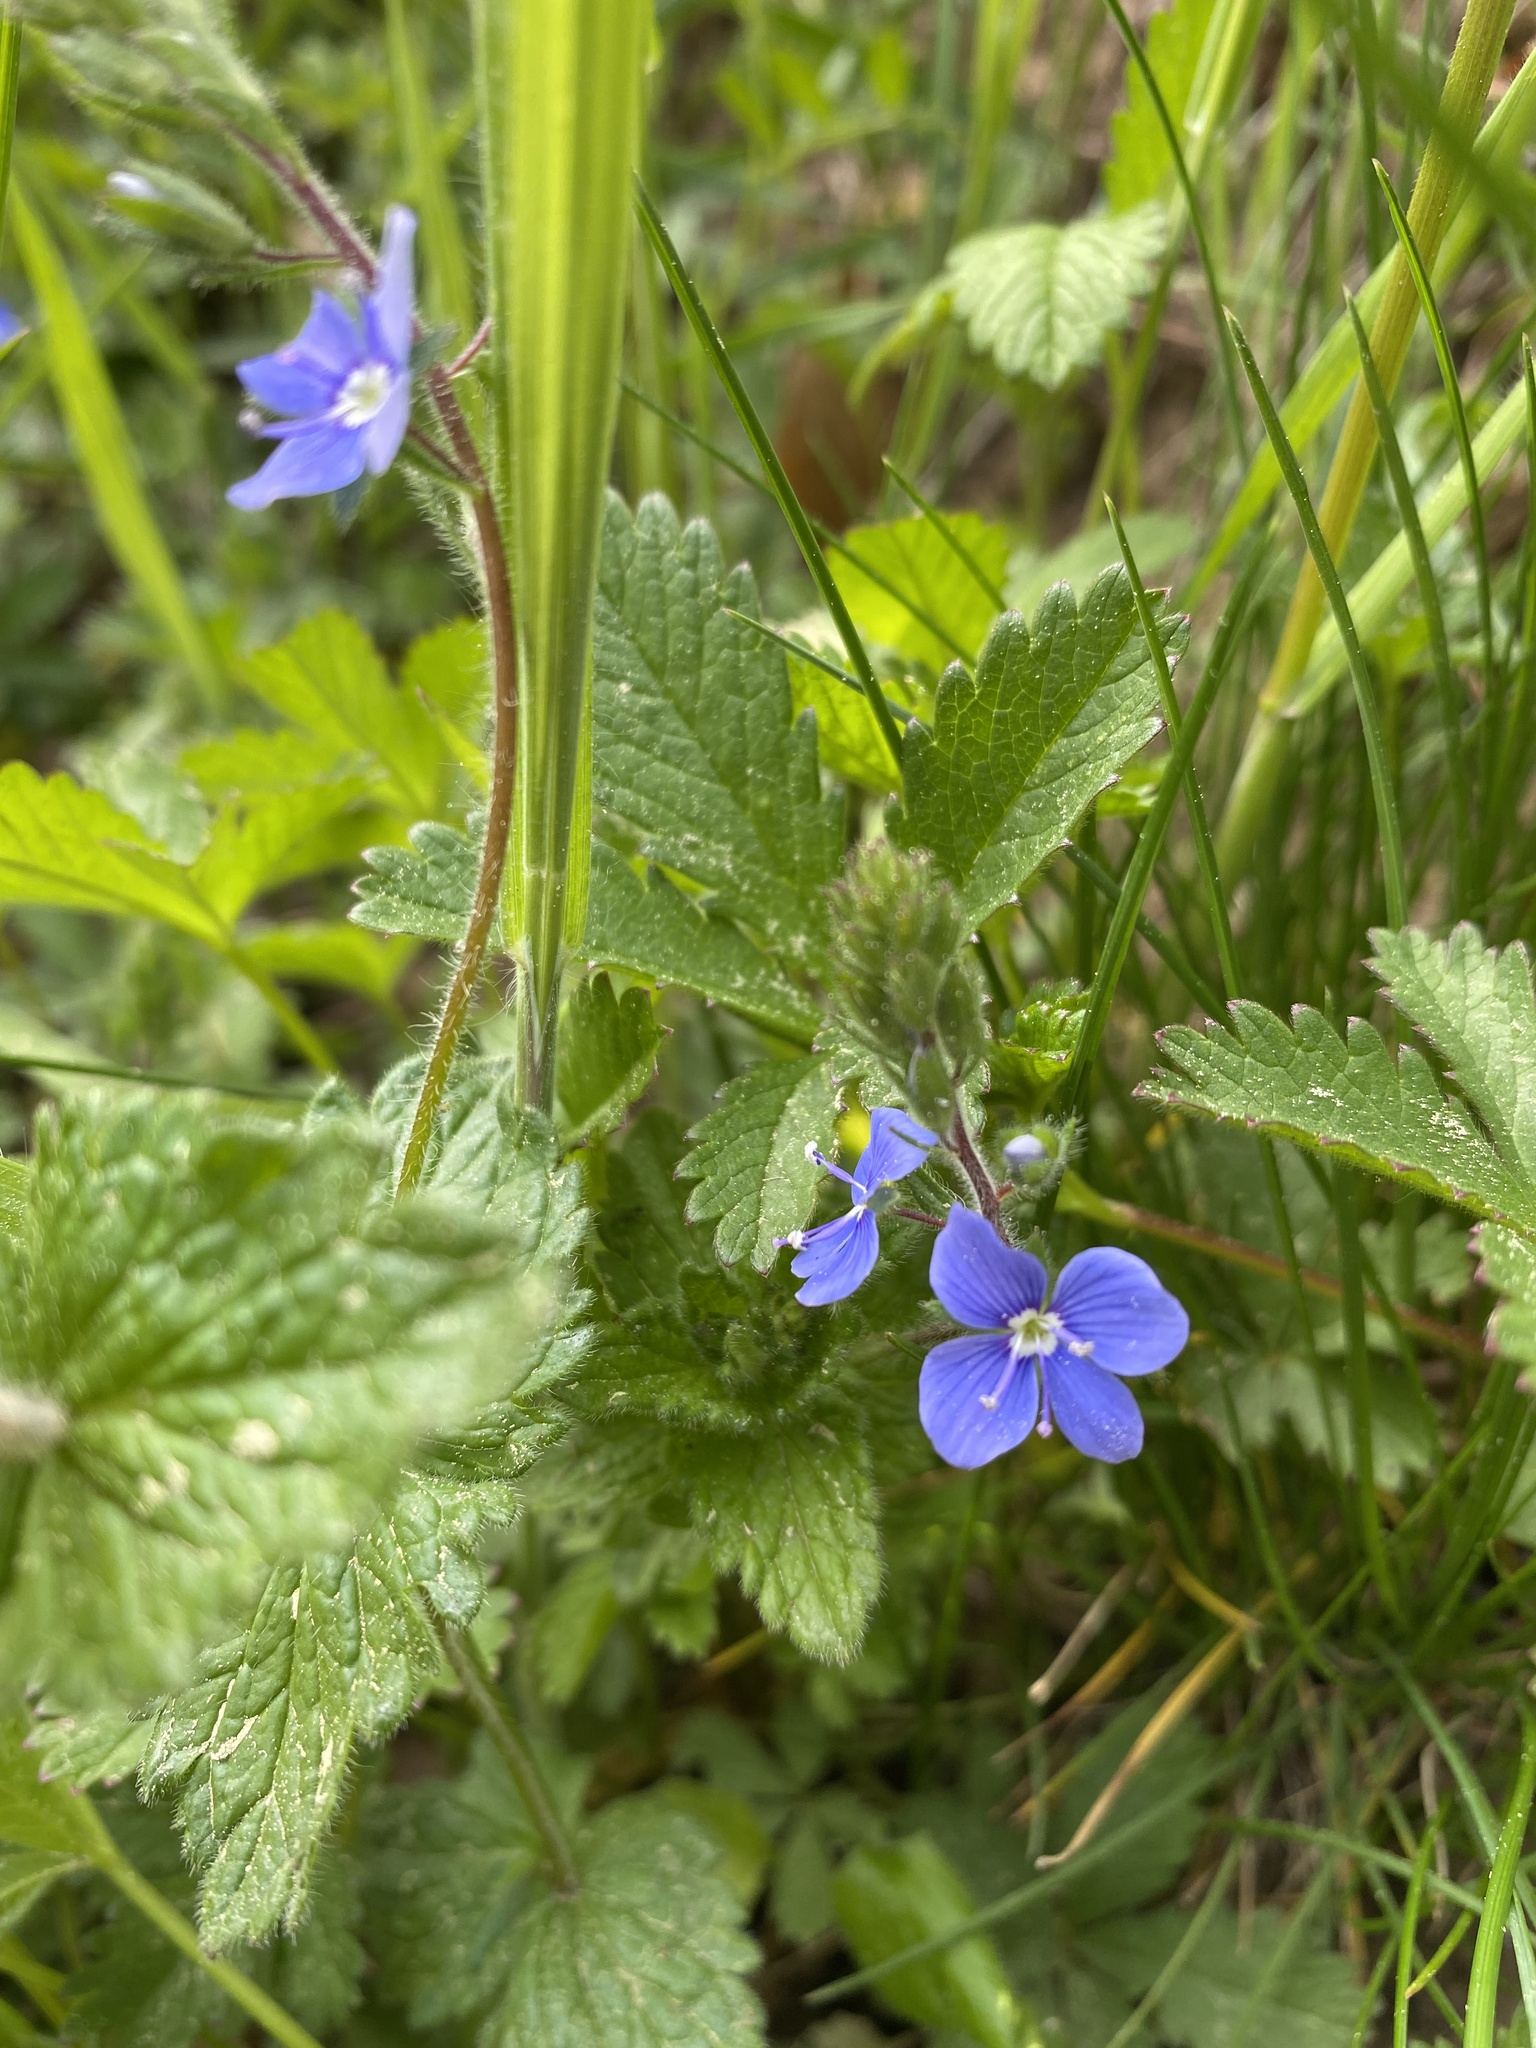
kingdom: Plantae
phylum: Tracheophyta
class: Magnoliopsida
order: Lamiales
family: Plantaginaceae
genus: Veronica
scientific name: Veronica chamaedrys
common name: Germander speedwell
